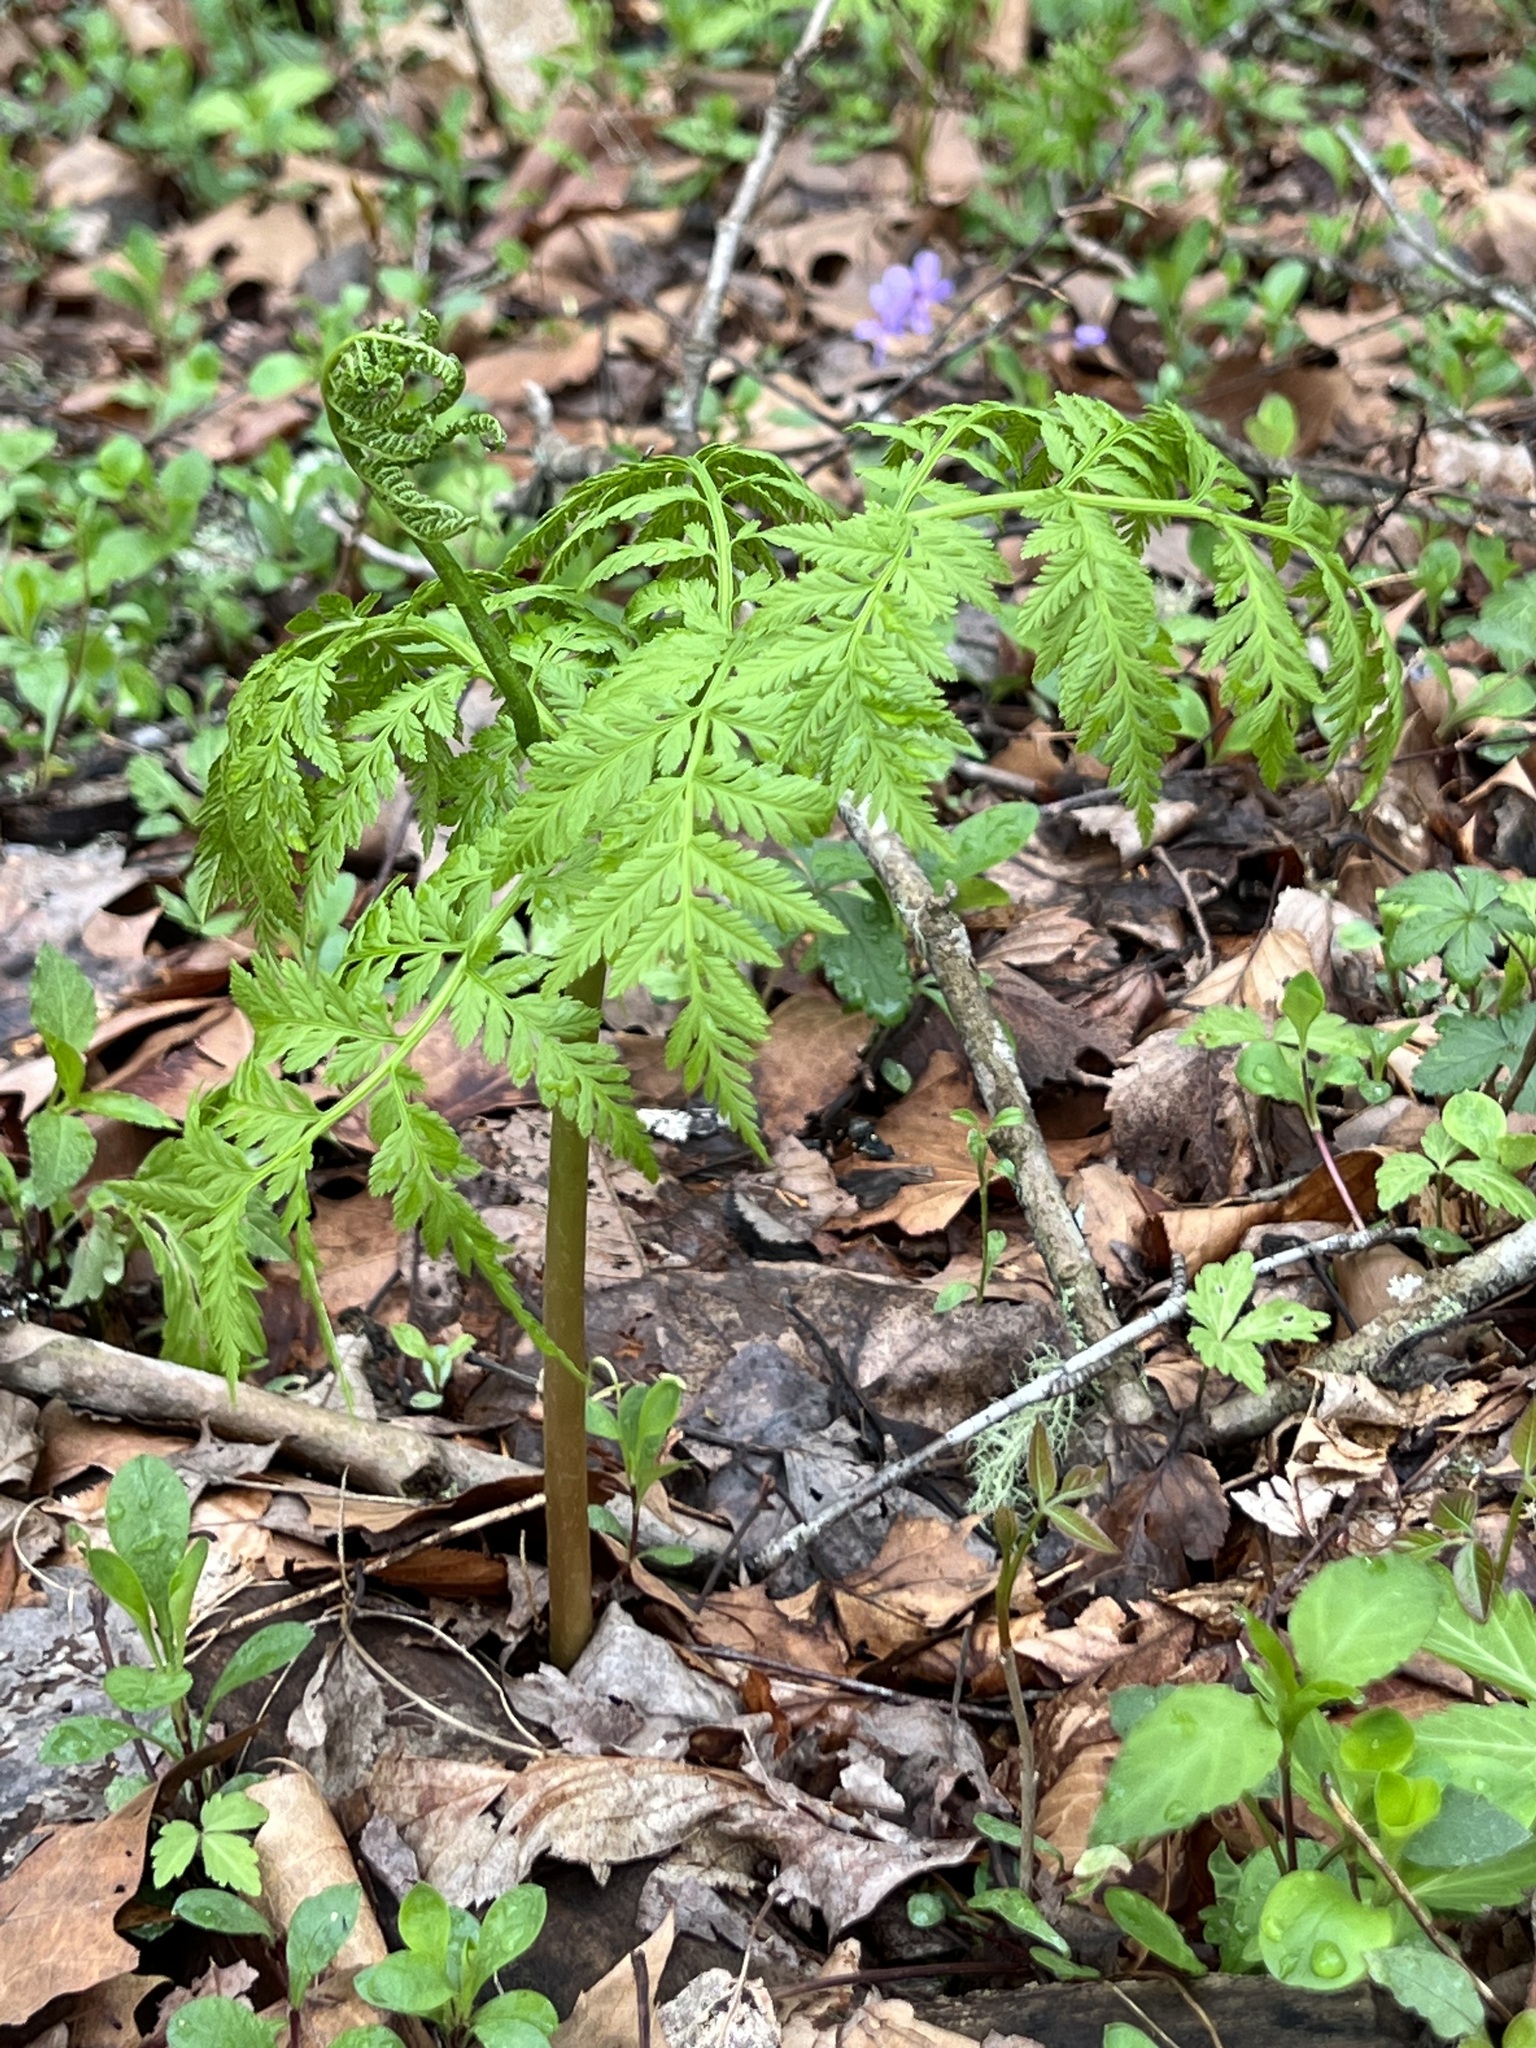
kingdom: Plantae
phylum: Tracheophyta
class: Polypodiopsida
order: Ophioglossales
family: Ophioglossaceae
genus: Botrypus
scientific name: Botrypus virginianus
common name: Common grapefern
